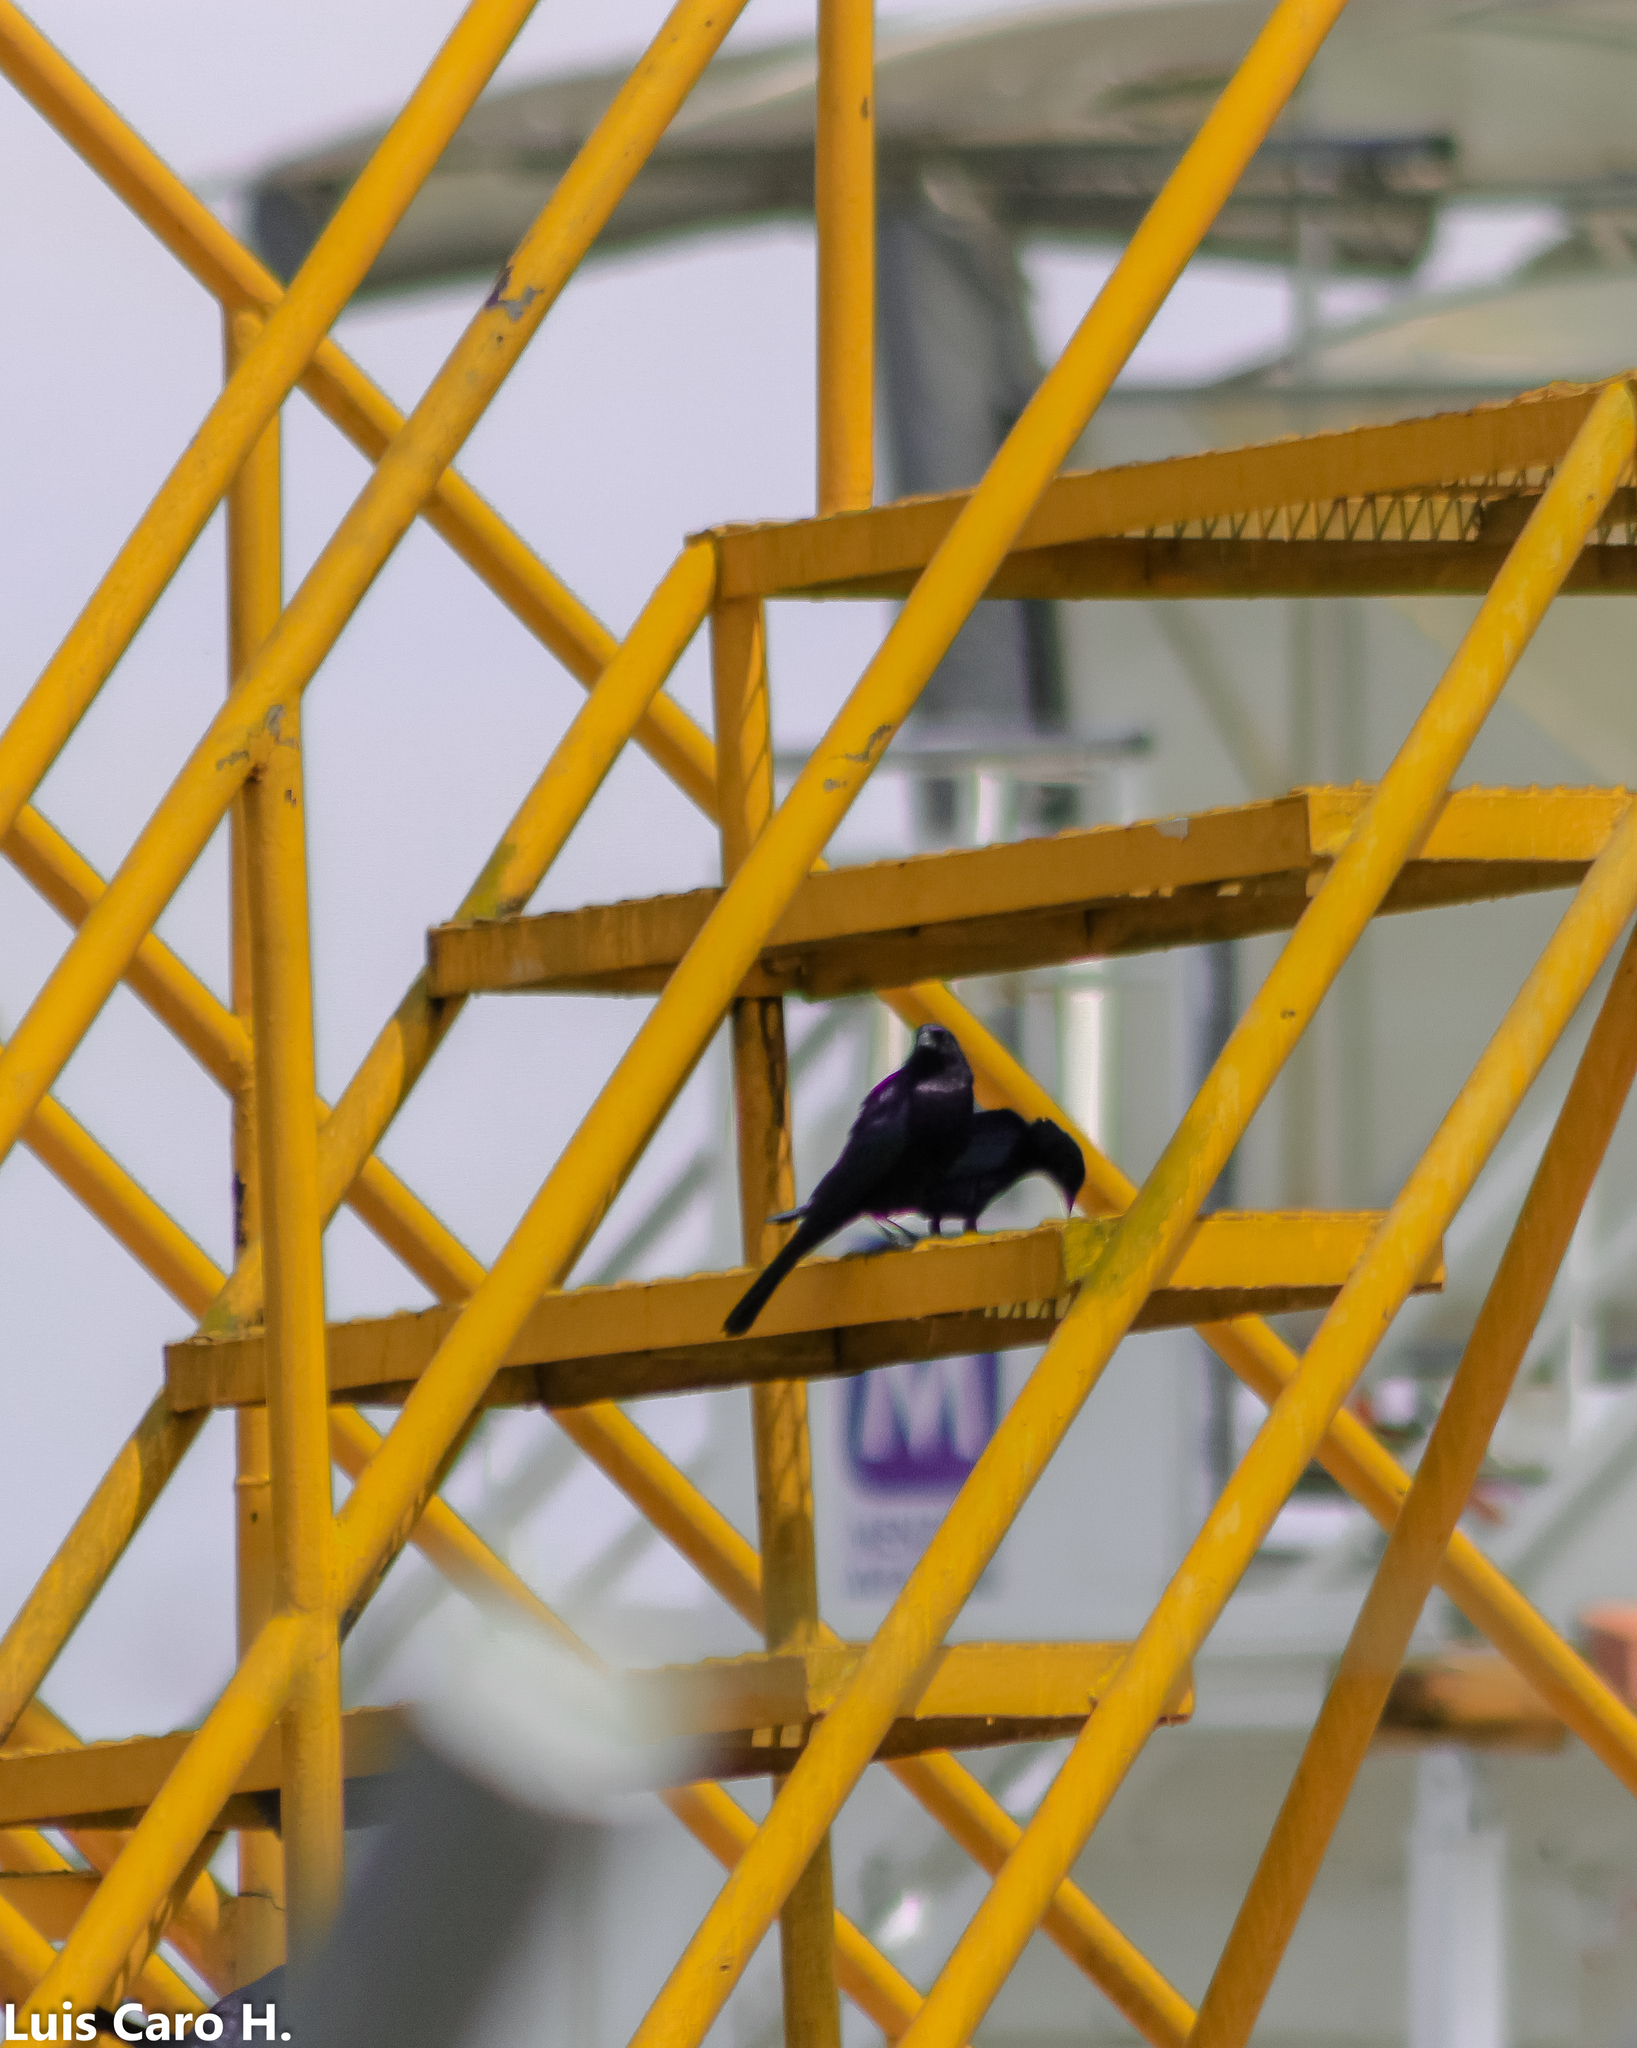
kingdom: Animalia
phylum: Chordata
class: Aves
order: Passeriformes
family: Icteridae
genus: Molothrus
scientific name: Molothrus bonariensis
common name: Shiny cowbird
